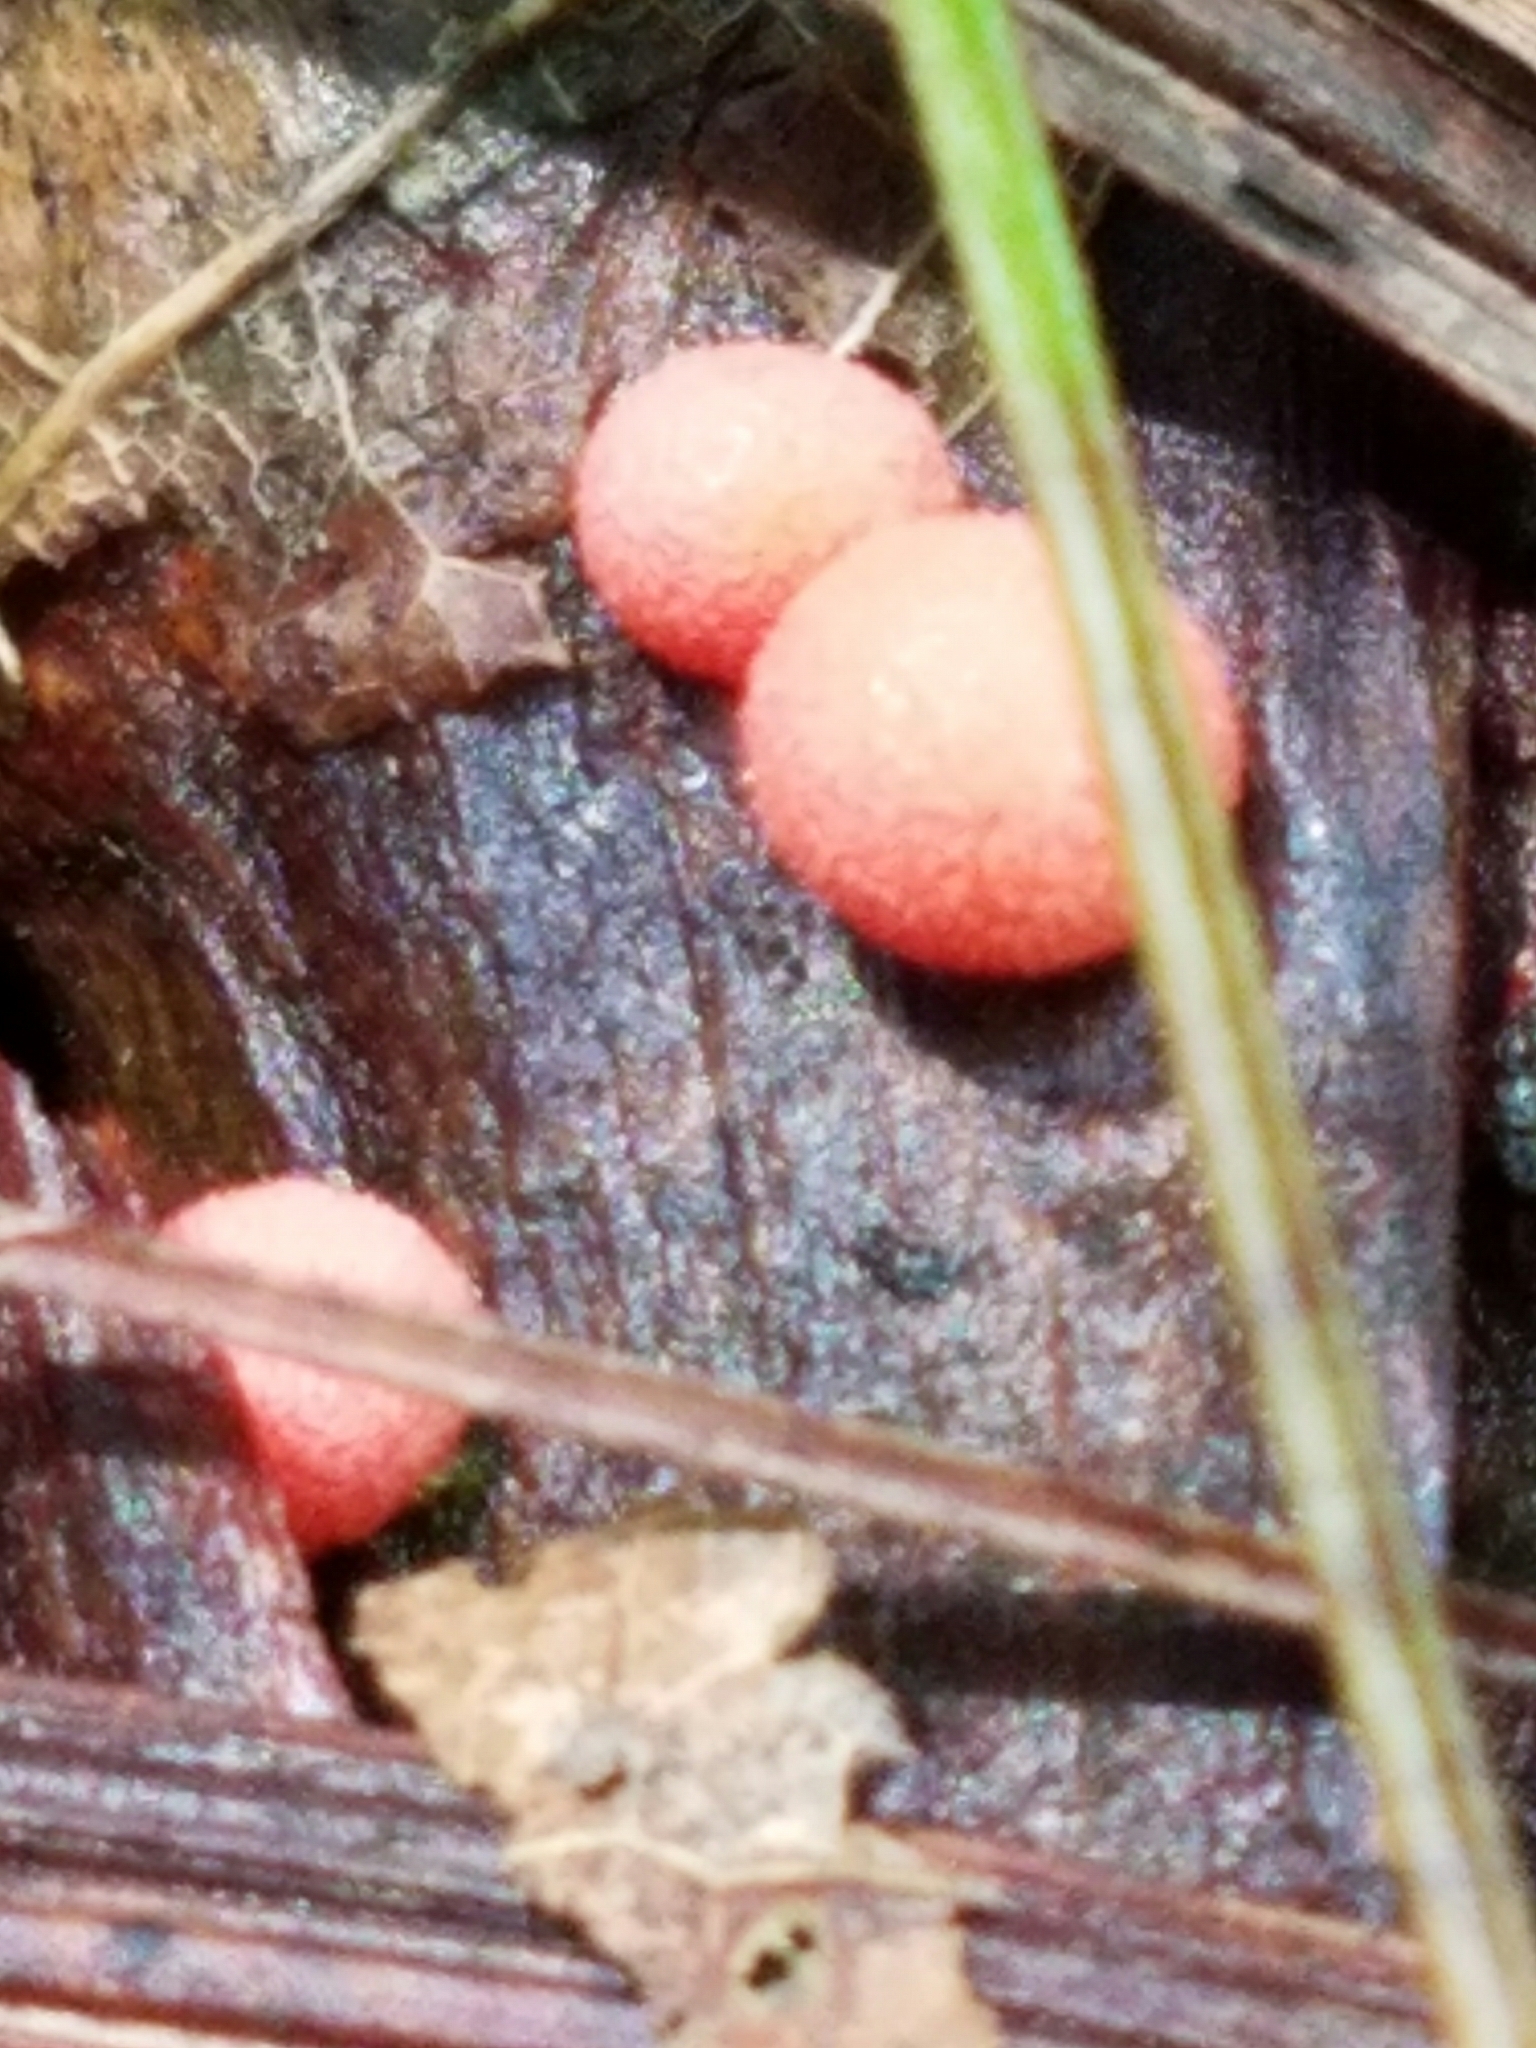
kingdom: Protozoa
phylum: Mycetozoa
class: Myxomycetes
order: Cribrariales
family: Tubiferaceae
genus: Lycogala
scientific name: Lycogala epidendrum
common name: Wolf's milk
